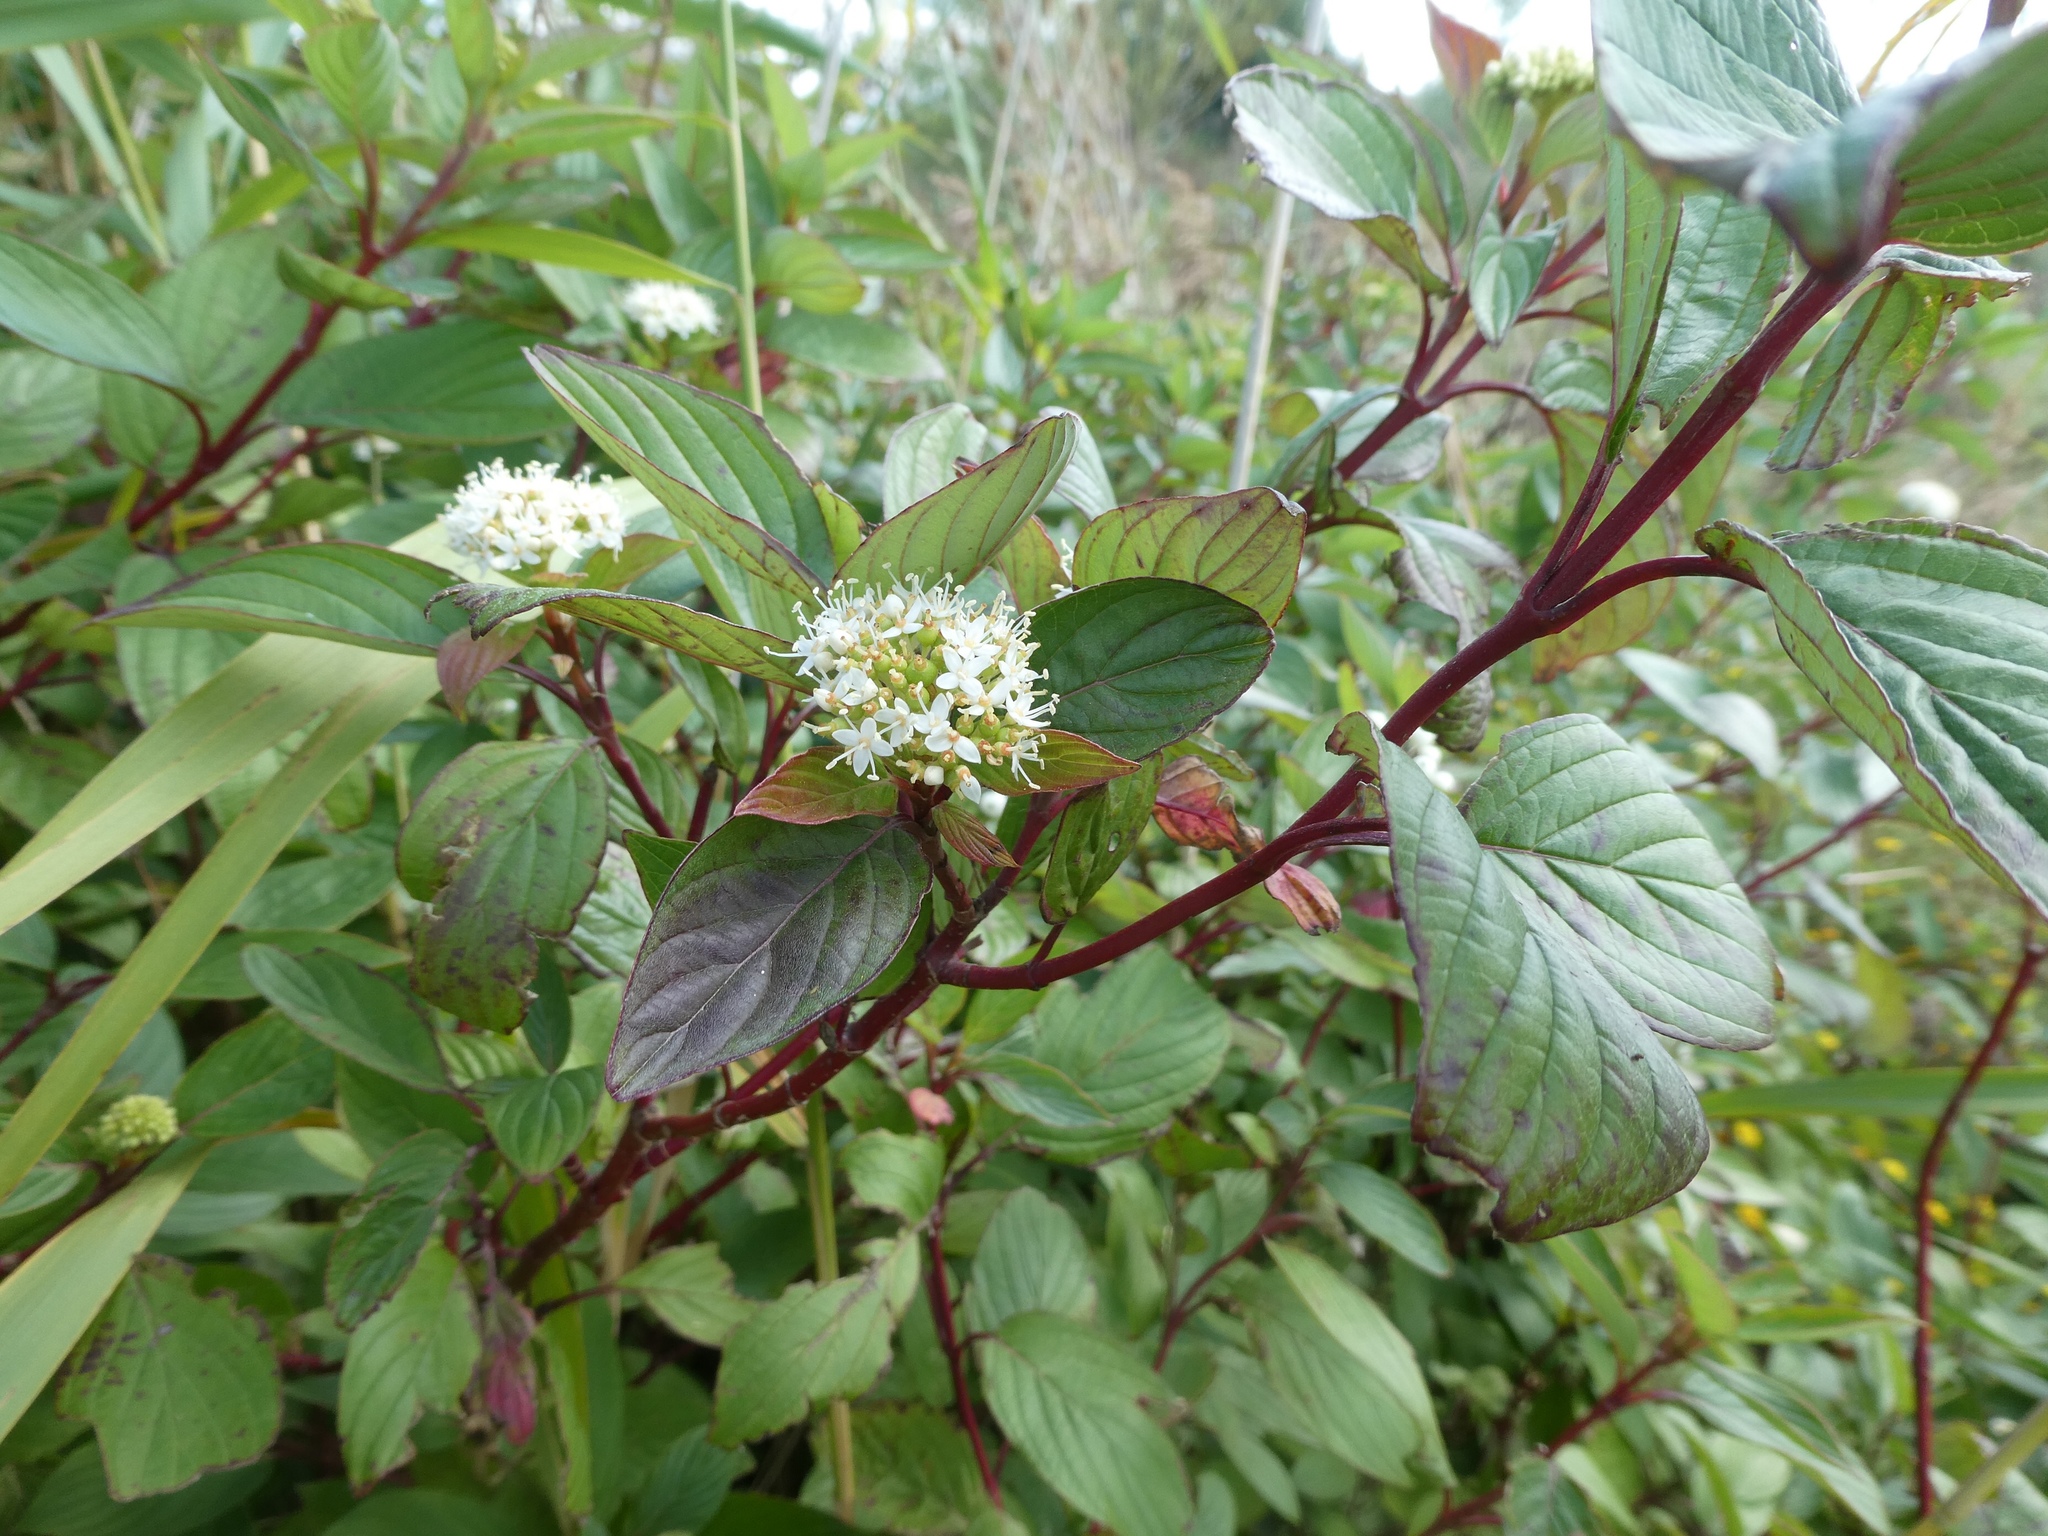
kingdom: Plantae
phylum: Tracheophyta
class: Magnoliopsida
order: Cornales
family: Cornaceae
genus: Cornus
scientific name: Cornus sericea
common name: Red-osier dogwood
